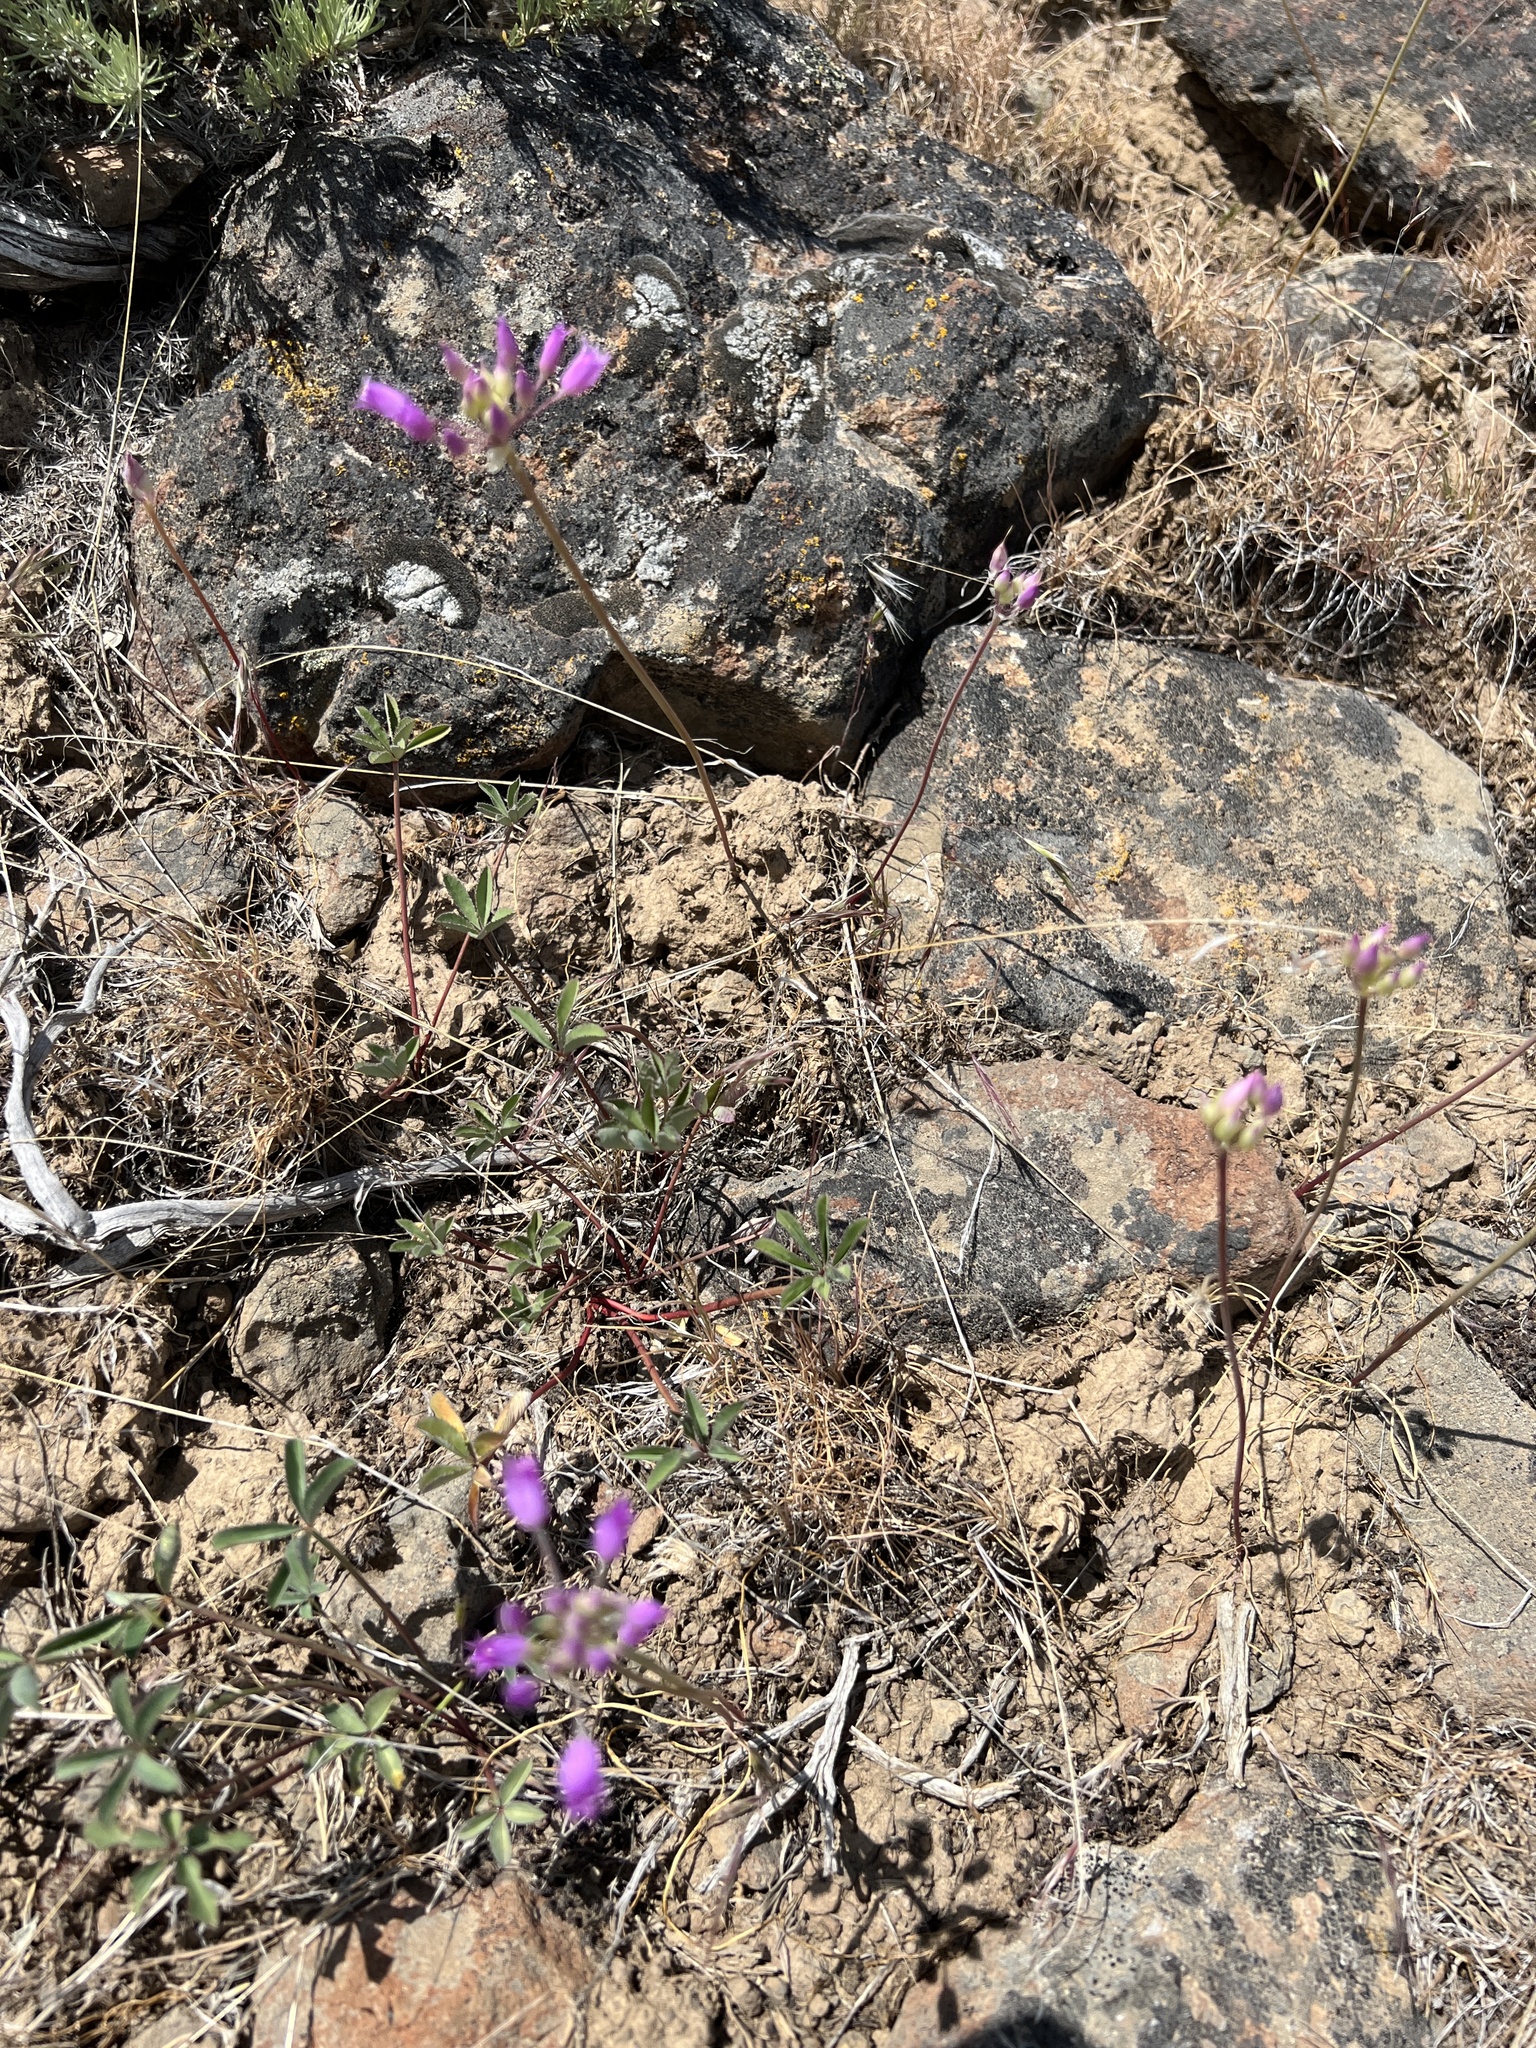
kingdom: Plantae
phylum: Tracheophyta
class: Liliopsida
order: Asparagales
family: Amaryllidaceae
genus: Allium
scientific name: Allium acuminatum
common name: Hooker's onion
